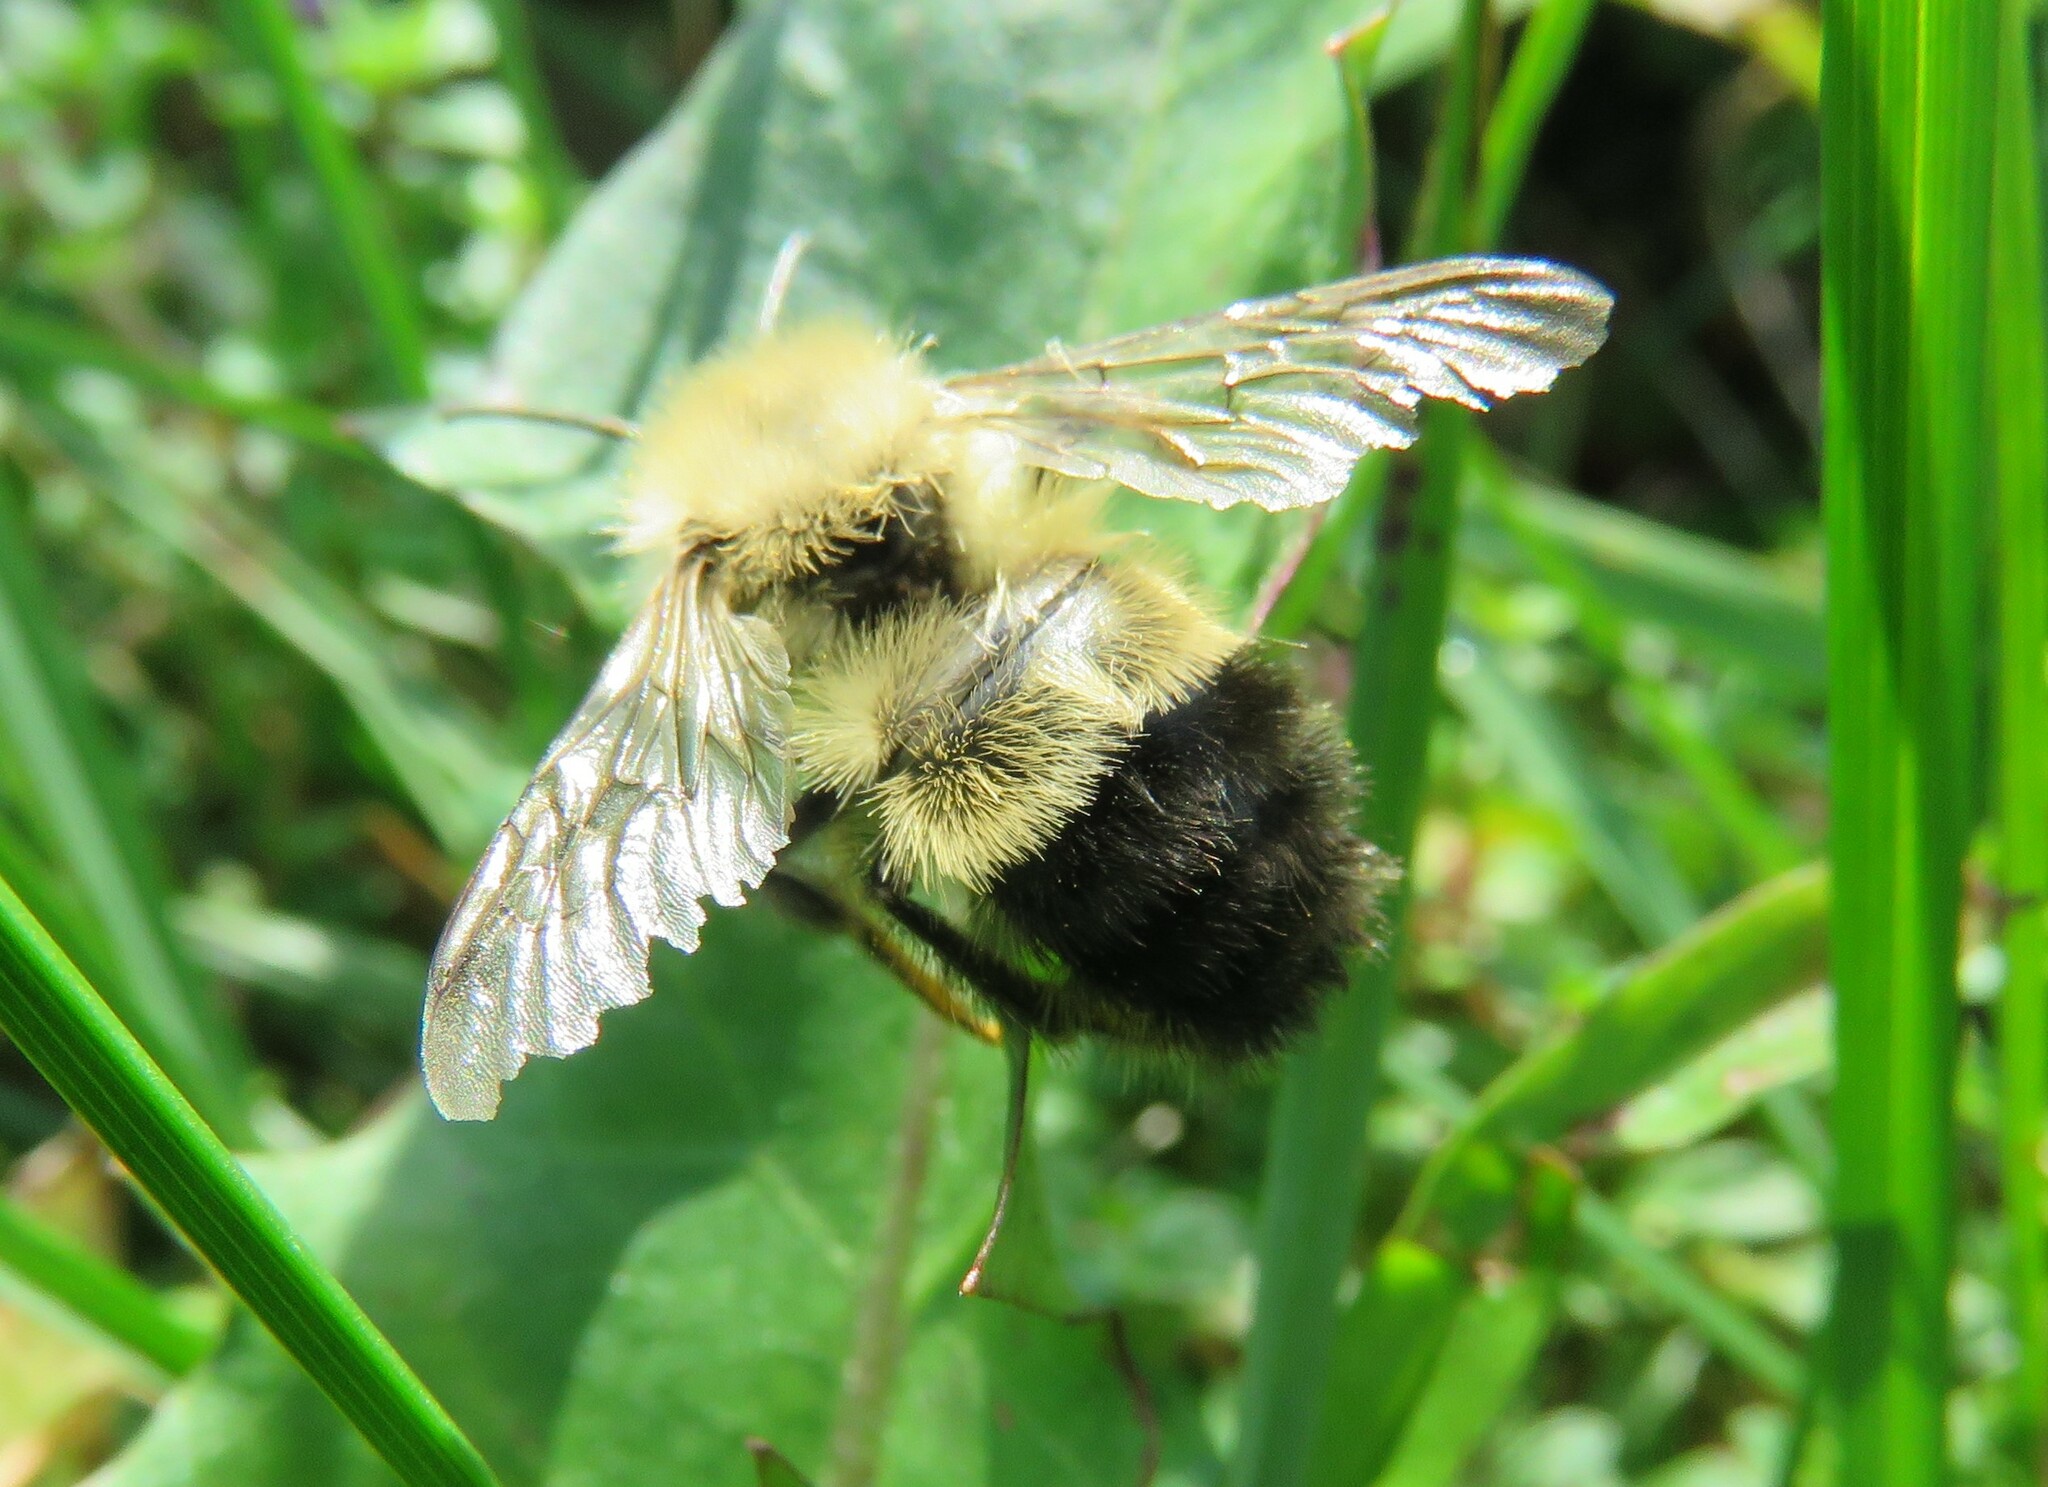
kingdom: Animalia
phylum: Arthropoda
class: Insecta
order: Hymenoptera
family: Apidae
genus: Pyrobombus
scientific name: Pyrobombus
